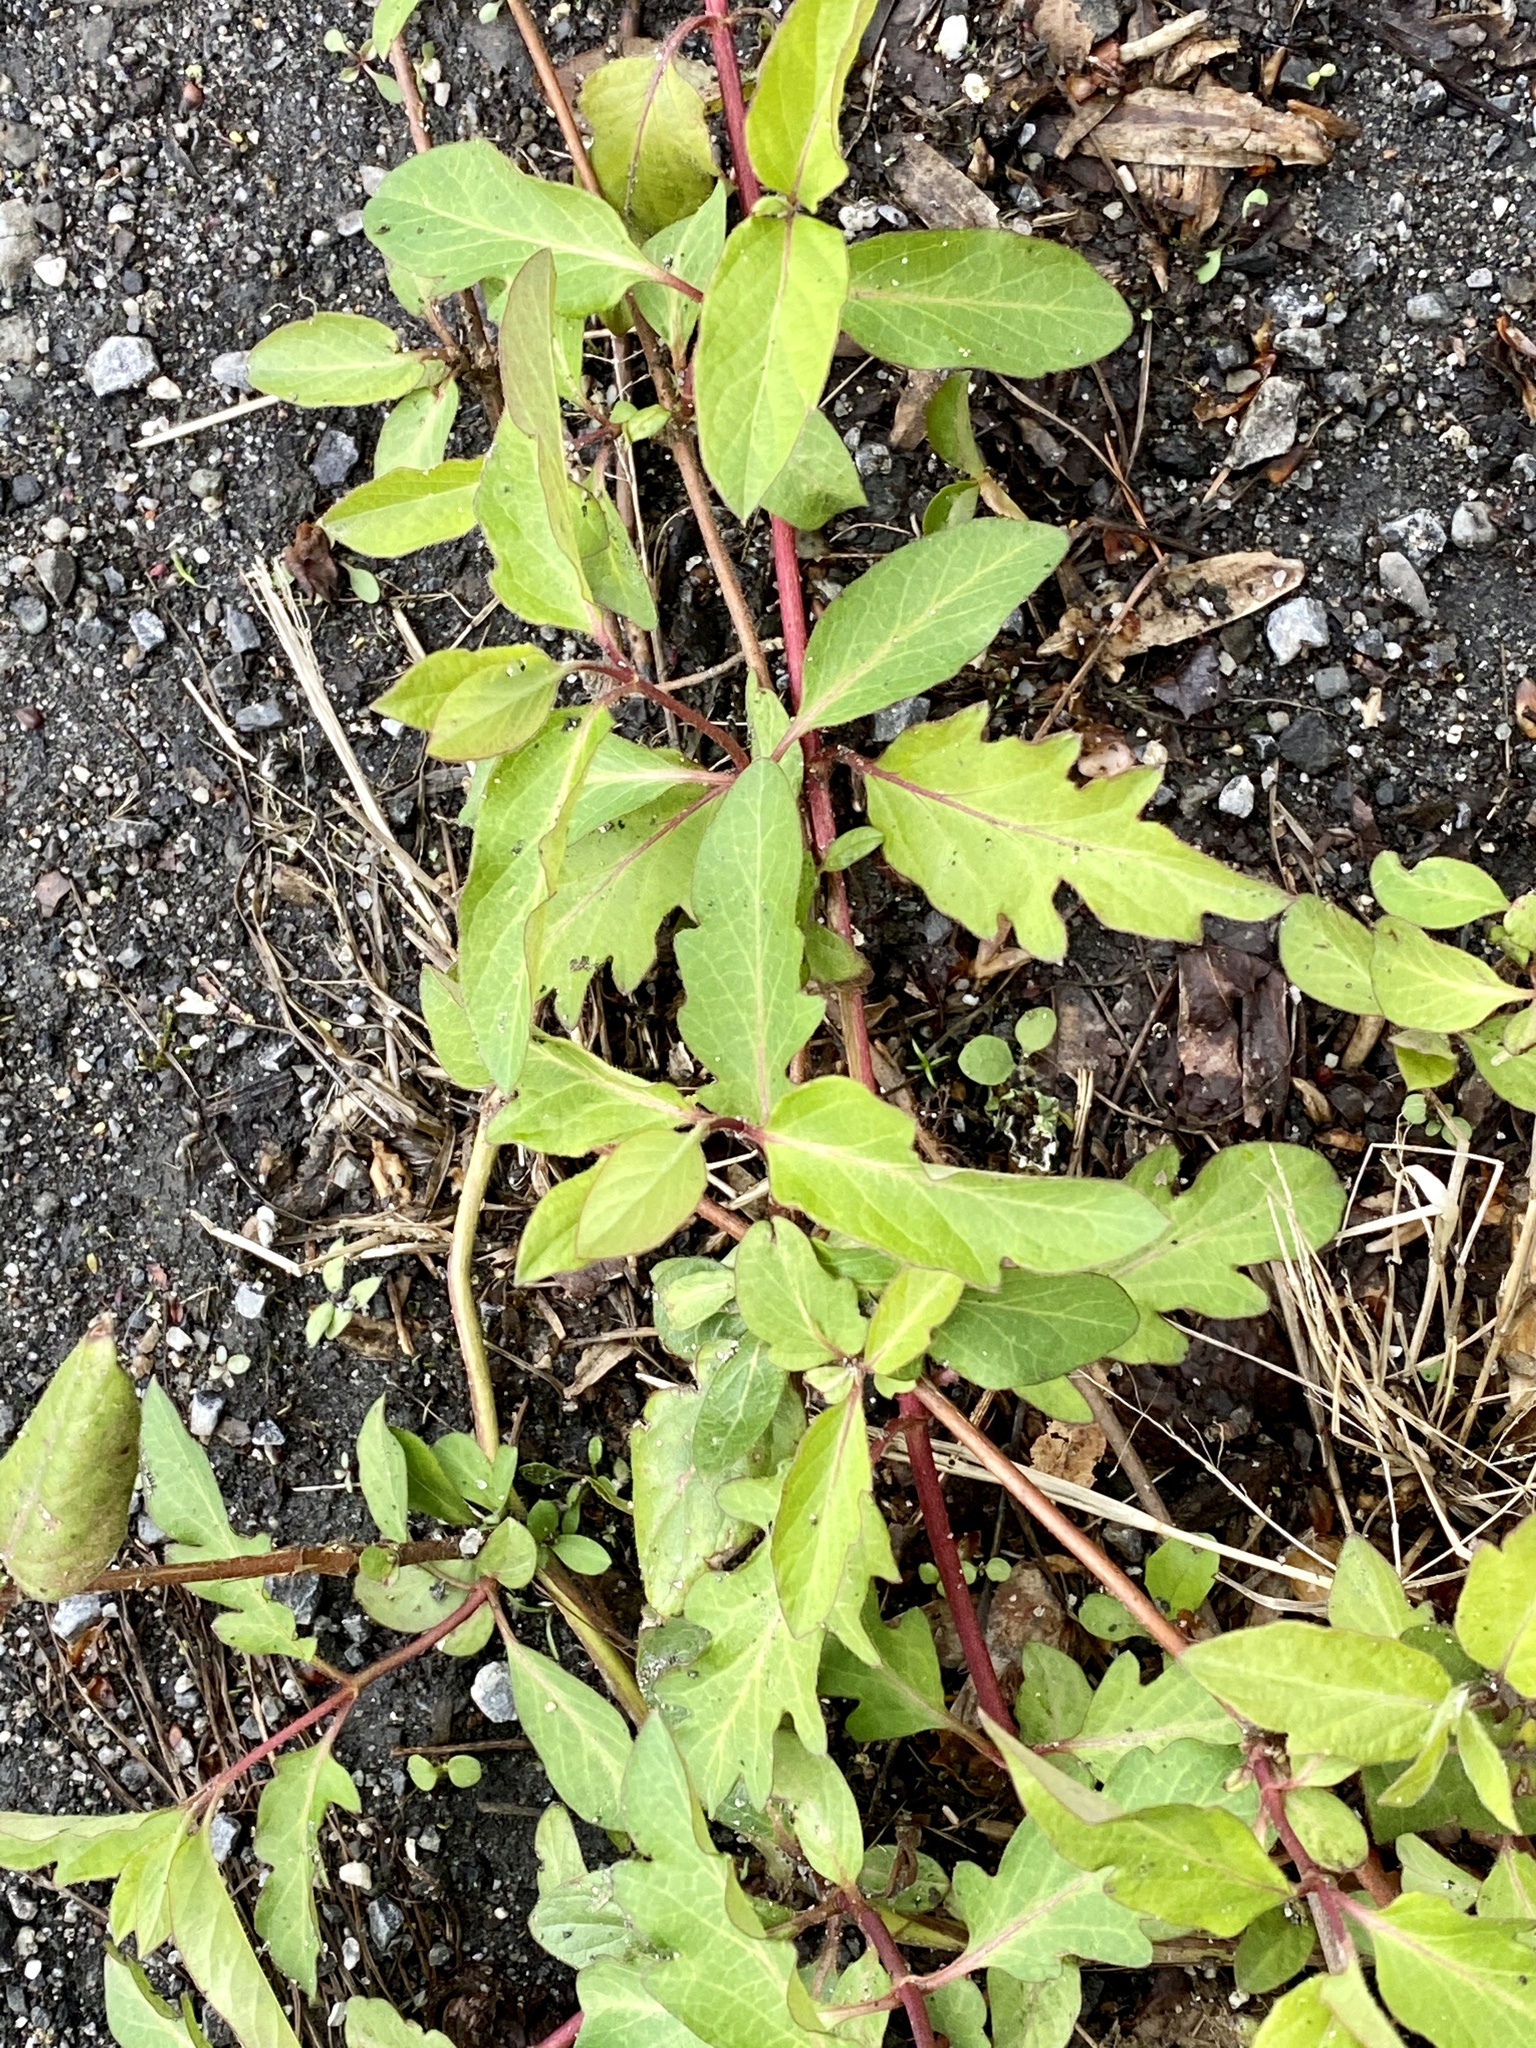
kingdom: Plantae
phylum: Tracheophyta
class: Magnoliopsida
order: Dipsacales
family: Caprifoliaceae
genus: Lonicera
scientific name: Lonicera japonica
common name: Japanese honeysuckle
